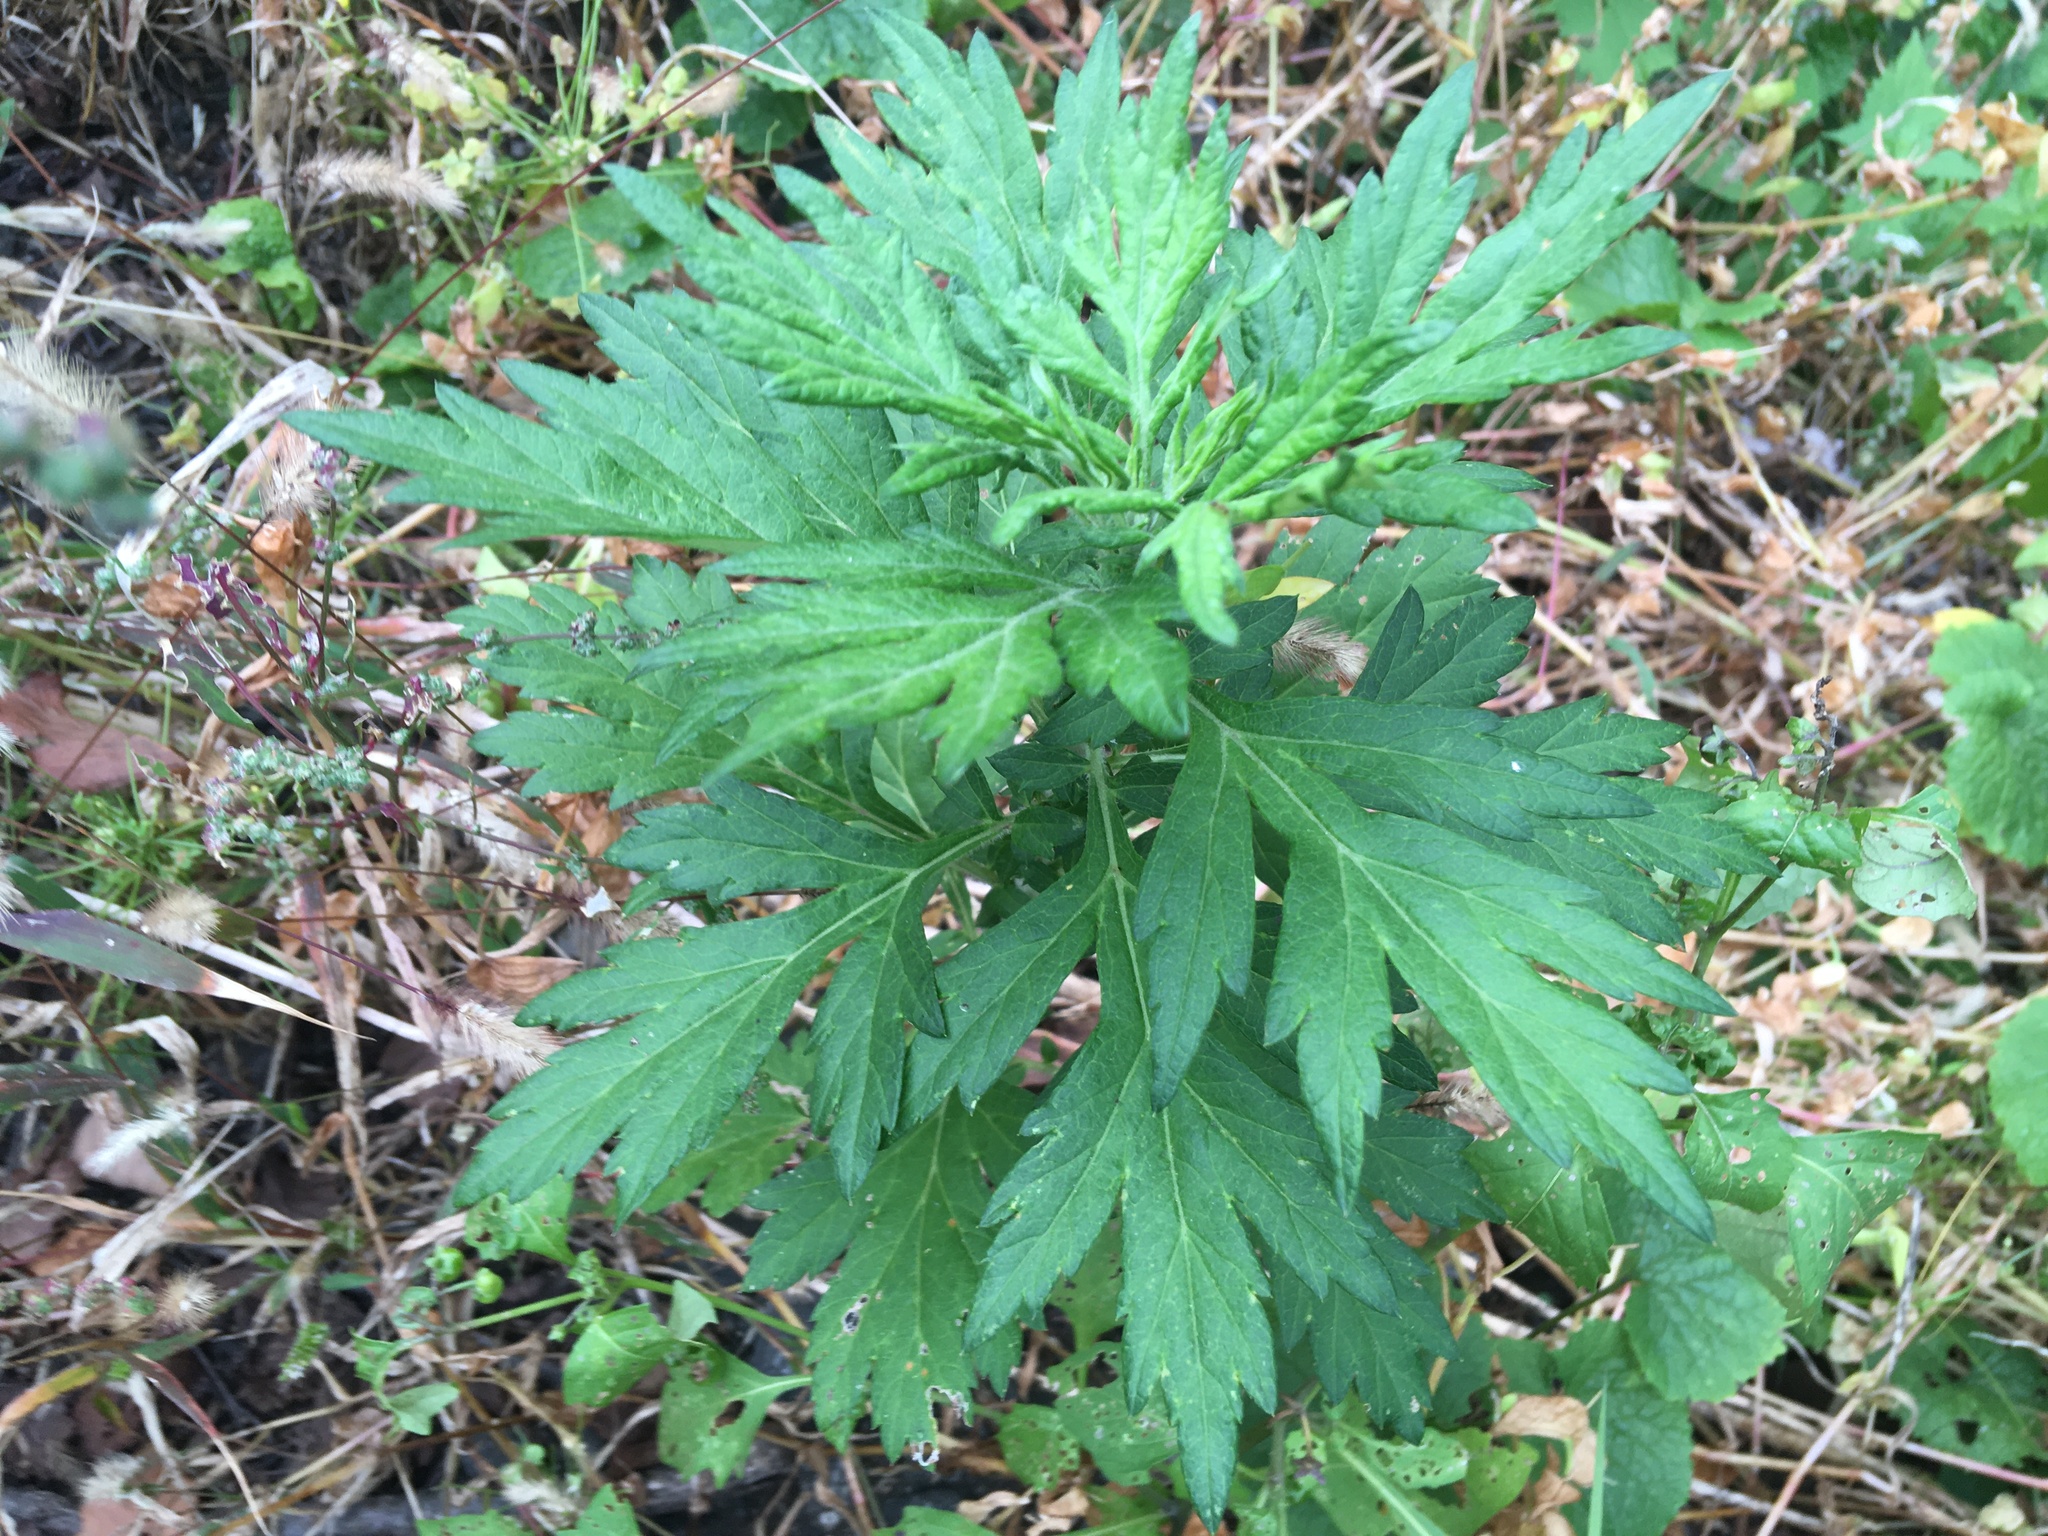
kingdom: Plantae
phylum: Tracheophyta
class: Magnoliopsida
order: Asterales
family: Asteraceae
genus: Artemisia
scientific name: Artemisia vulgaris
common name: Mugwort
